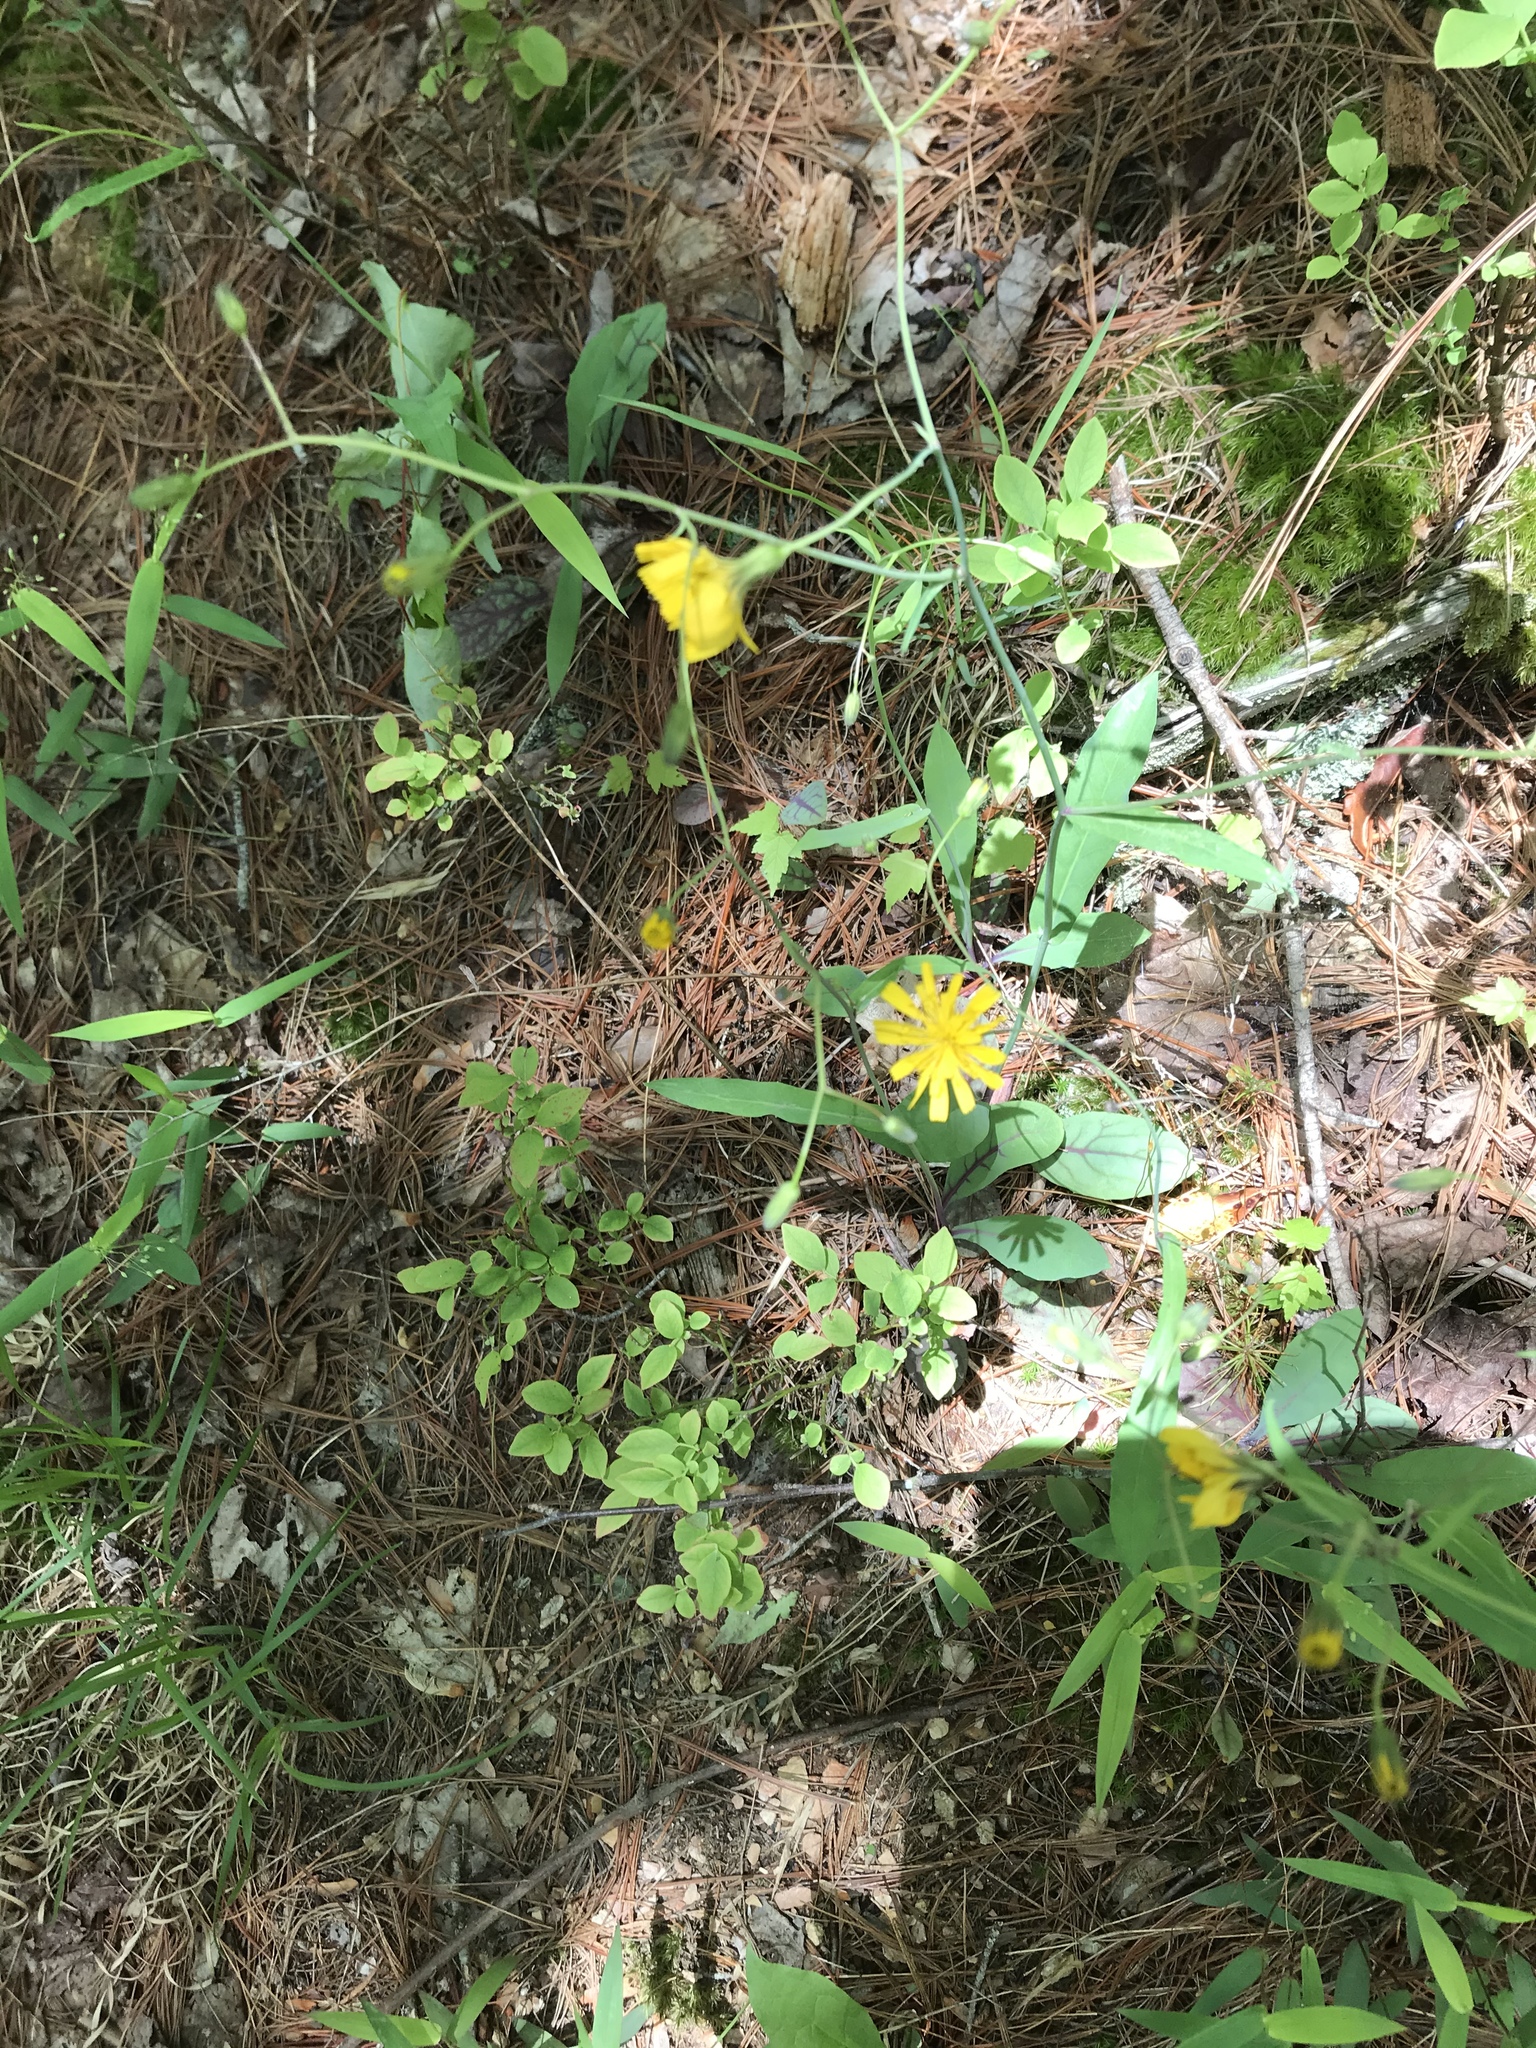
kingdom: Plantae
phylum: Tracheophyta
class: Magnoliopsida
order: Asterales
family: Asteraceae
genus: Hieracium
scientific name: Hieracium venosum
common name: Rattlesnake hawkweed
